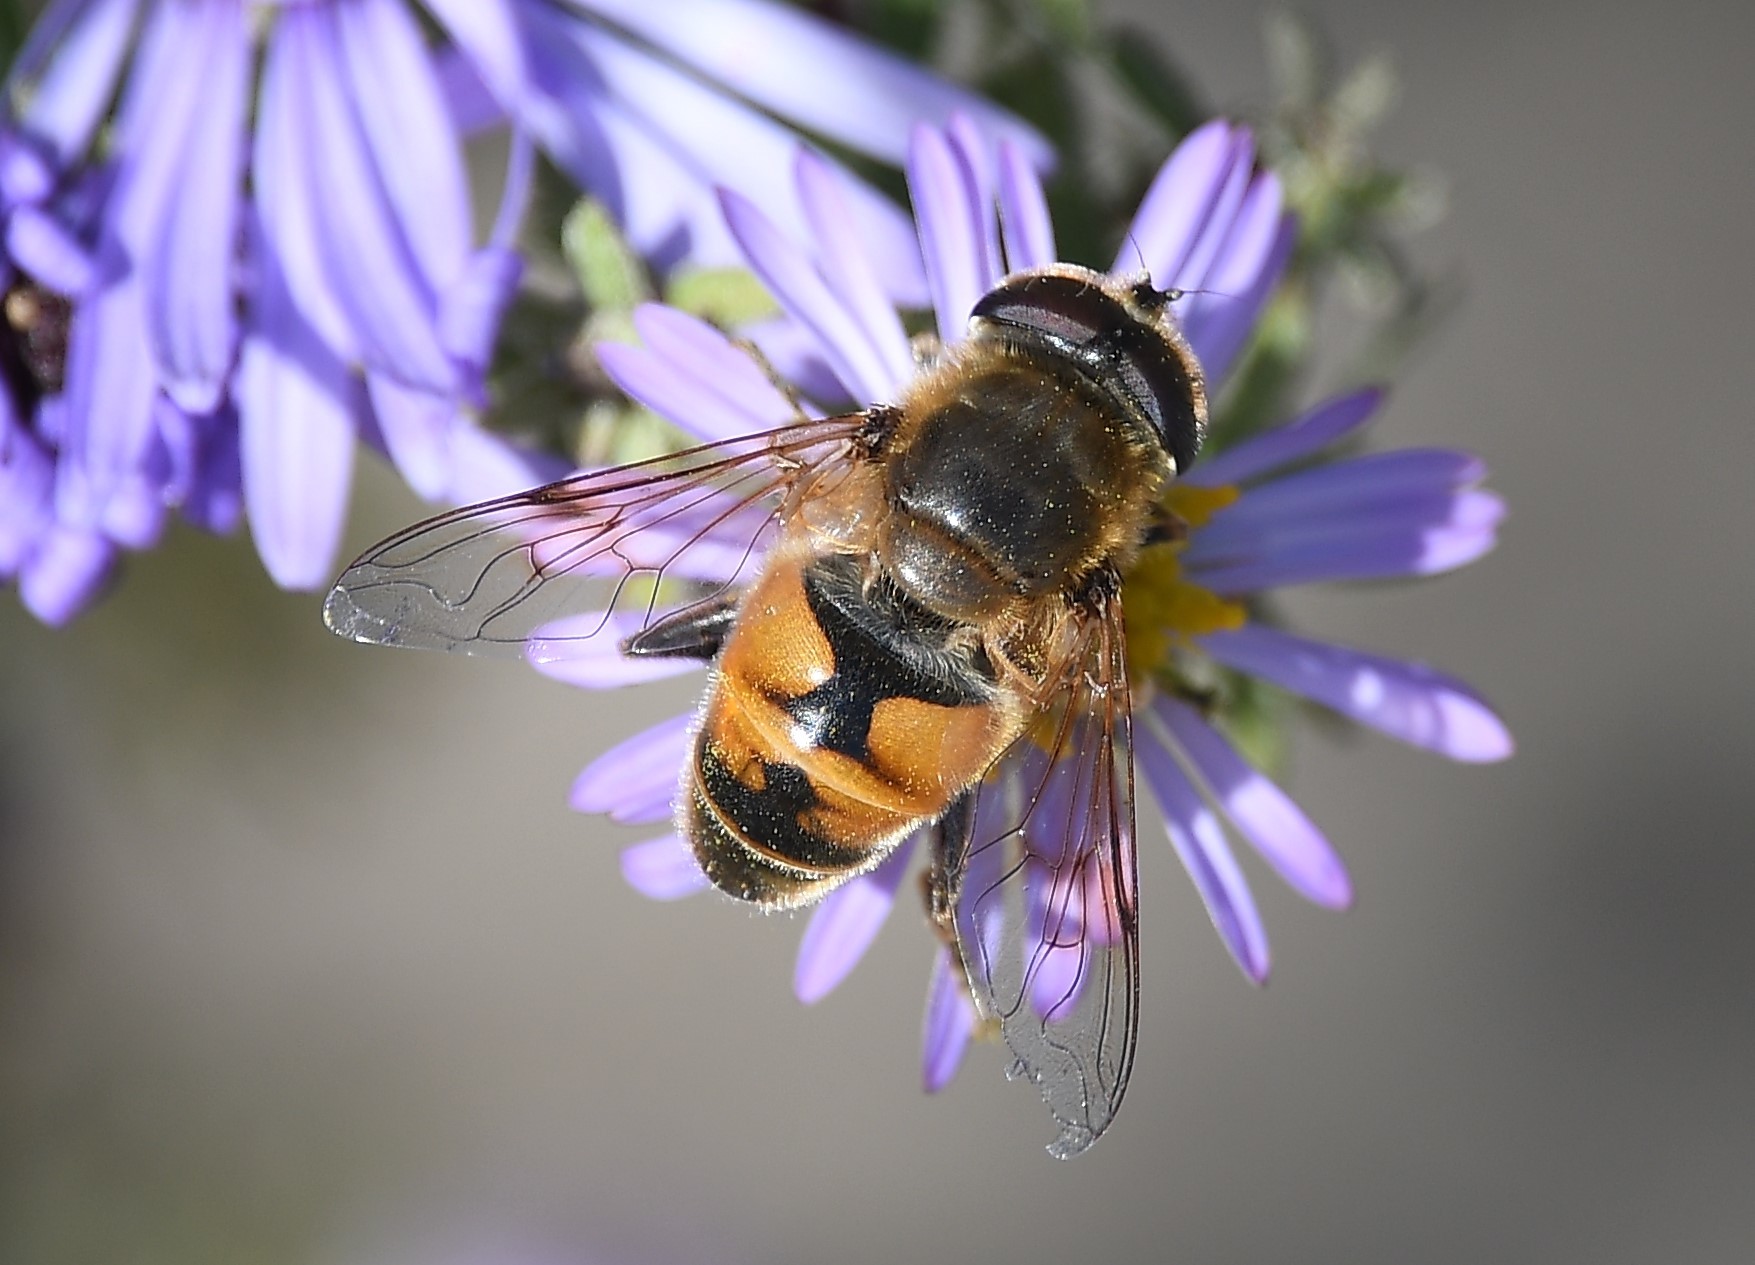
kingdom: Animalia
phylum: Arthropoda
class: Insecta
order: Diptera
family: Syrphidae
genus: Eristalis
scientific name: Eristalis tenax
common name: Drone fly
